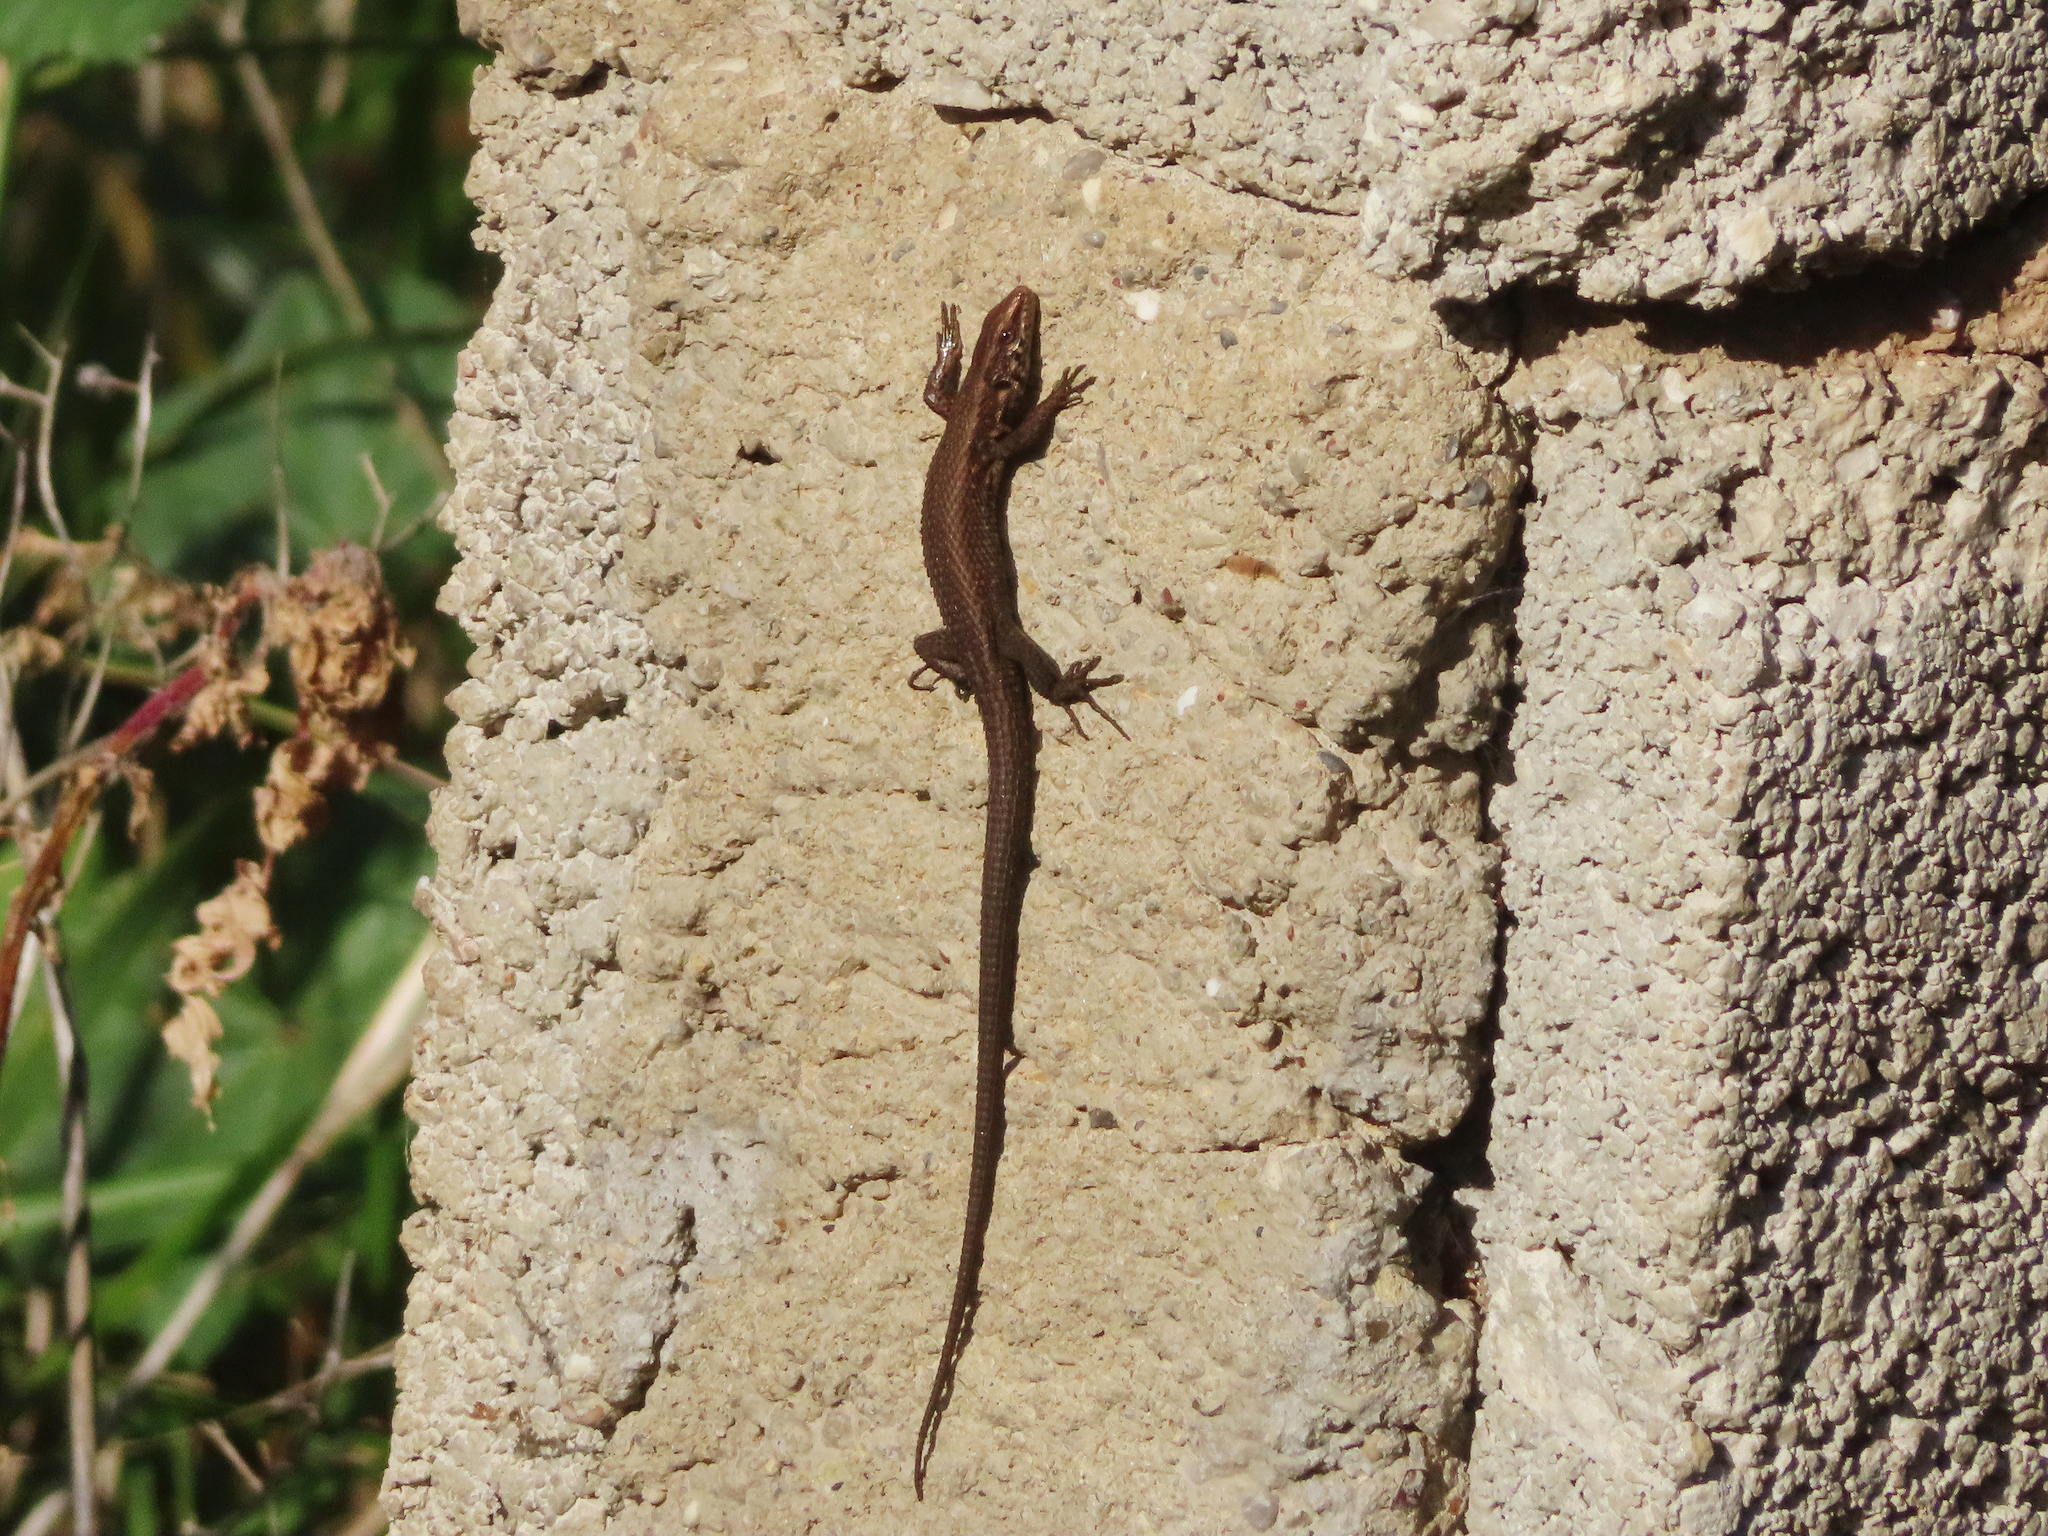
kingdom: Animalia
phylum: Chordata
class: Squamata
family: Lacertidae
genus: Algyroides
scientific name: Algyroides moreoticus
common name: Greek algyroides
